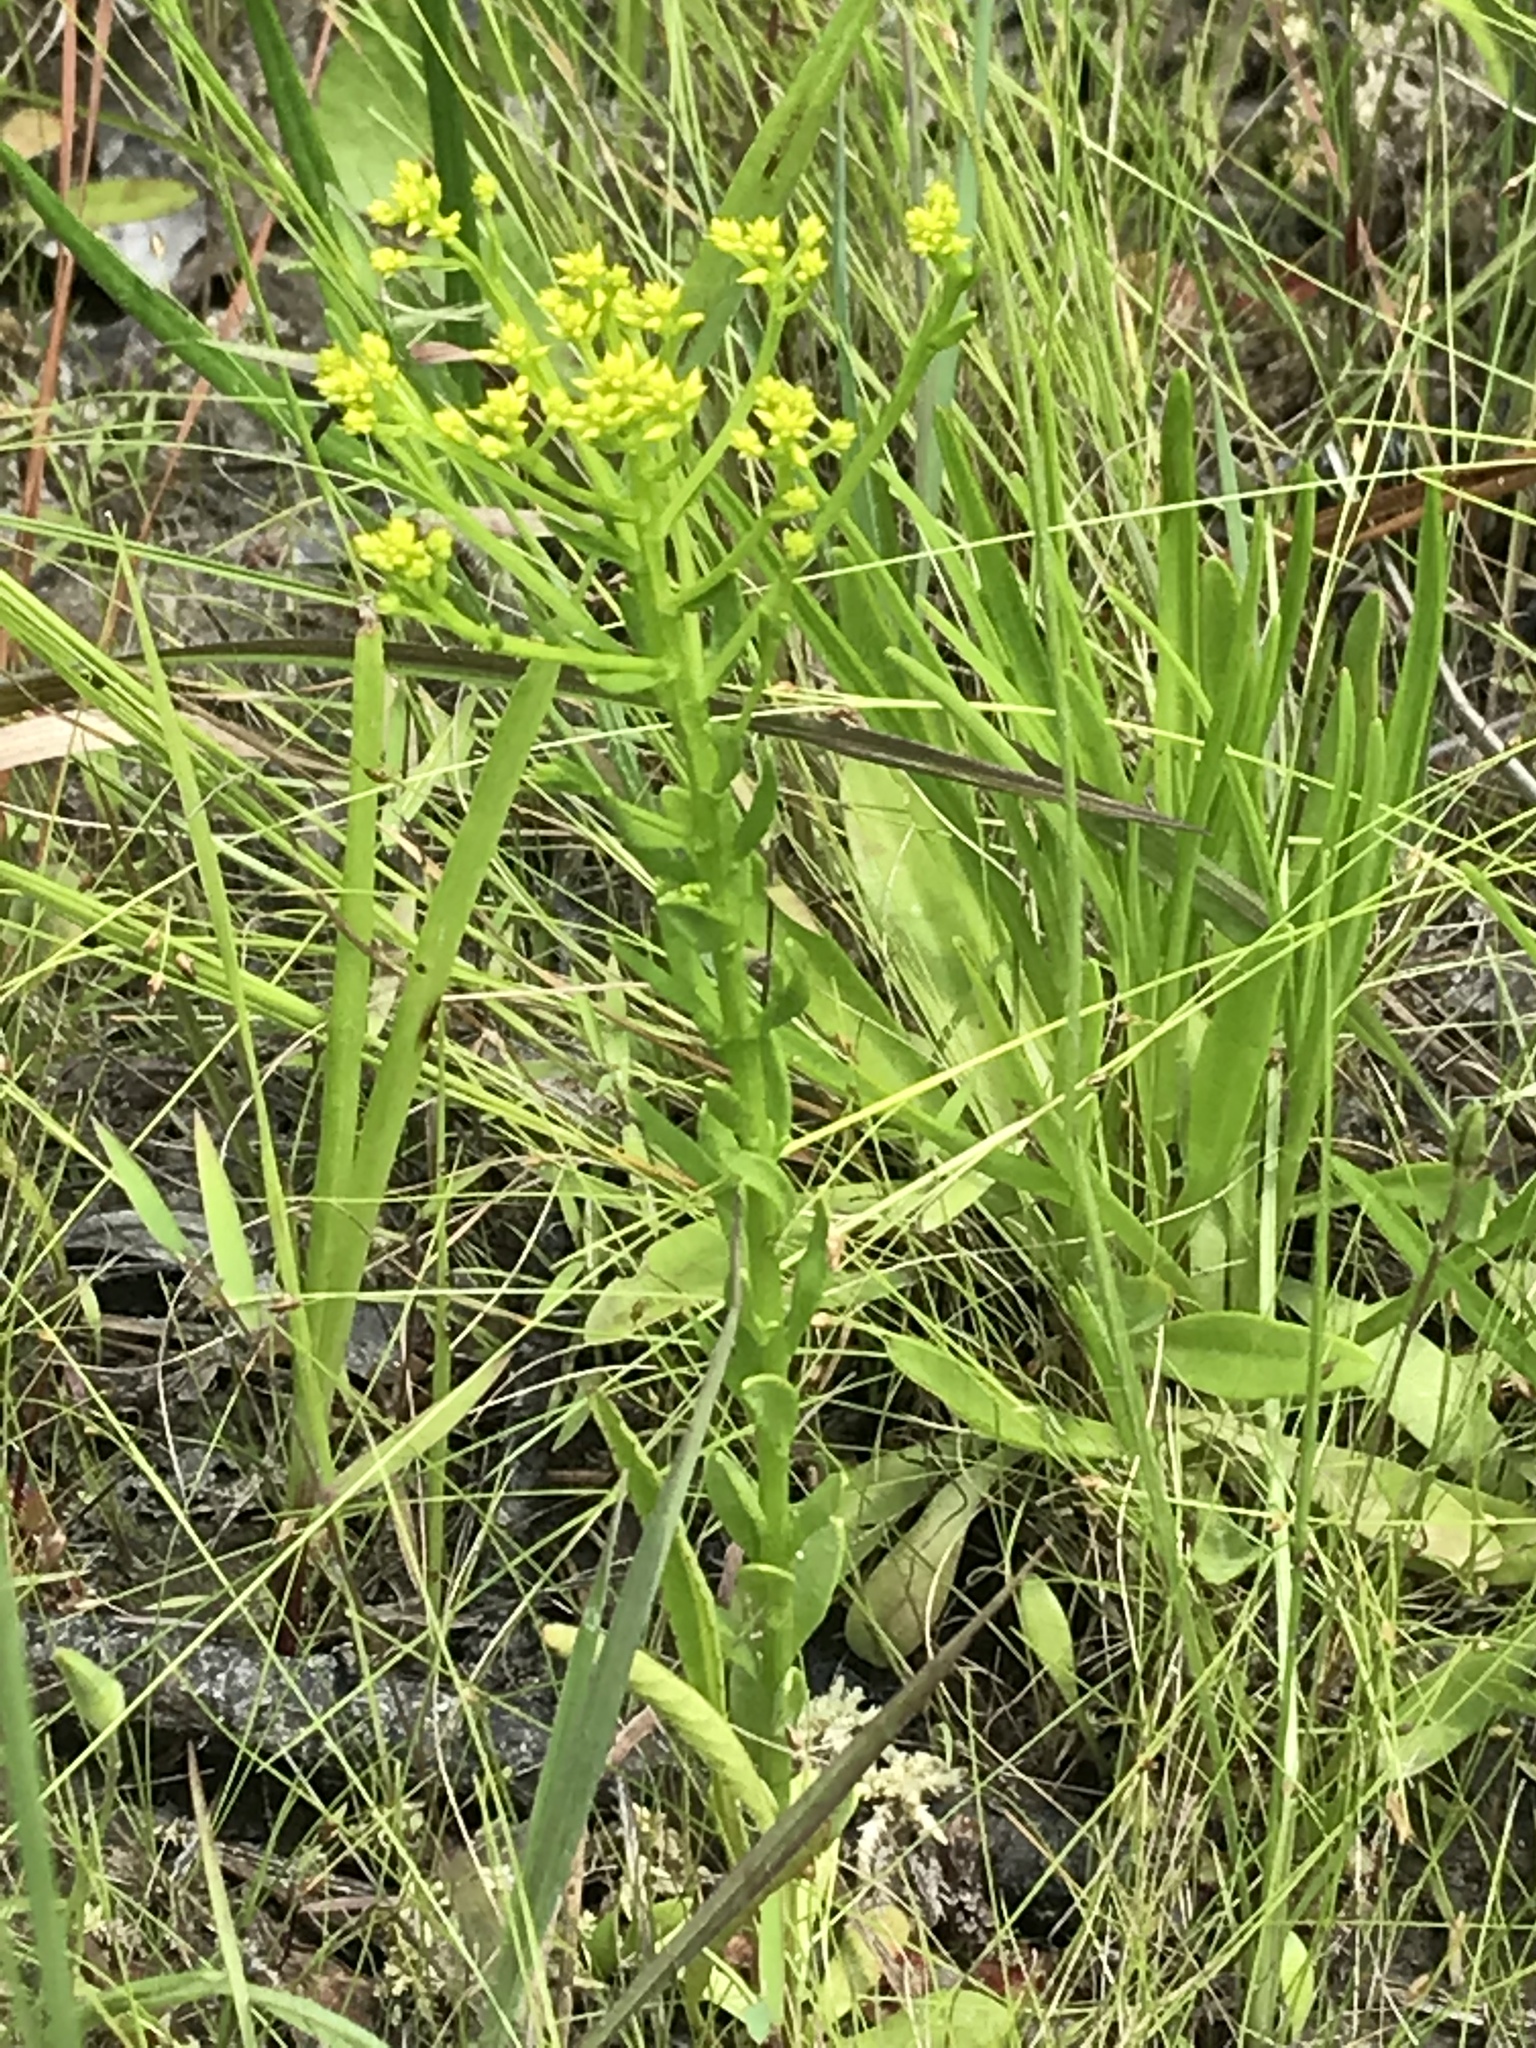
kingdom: Plantae
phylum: Tracheophyta
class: Magnoliopsida
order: Fabales
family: Polygalaceae
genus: Polygala
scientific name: Polygala ramosa
